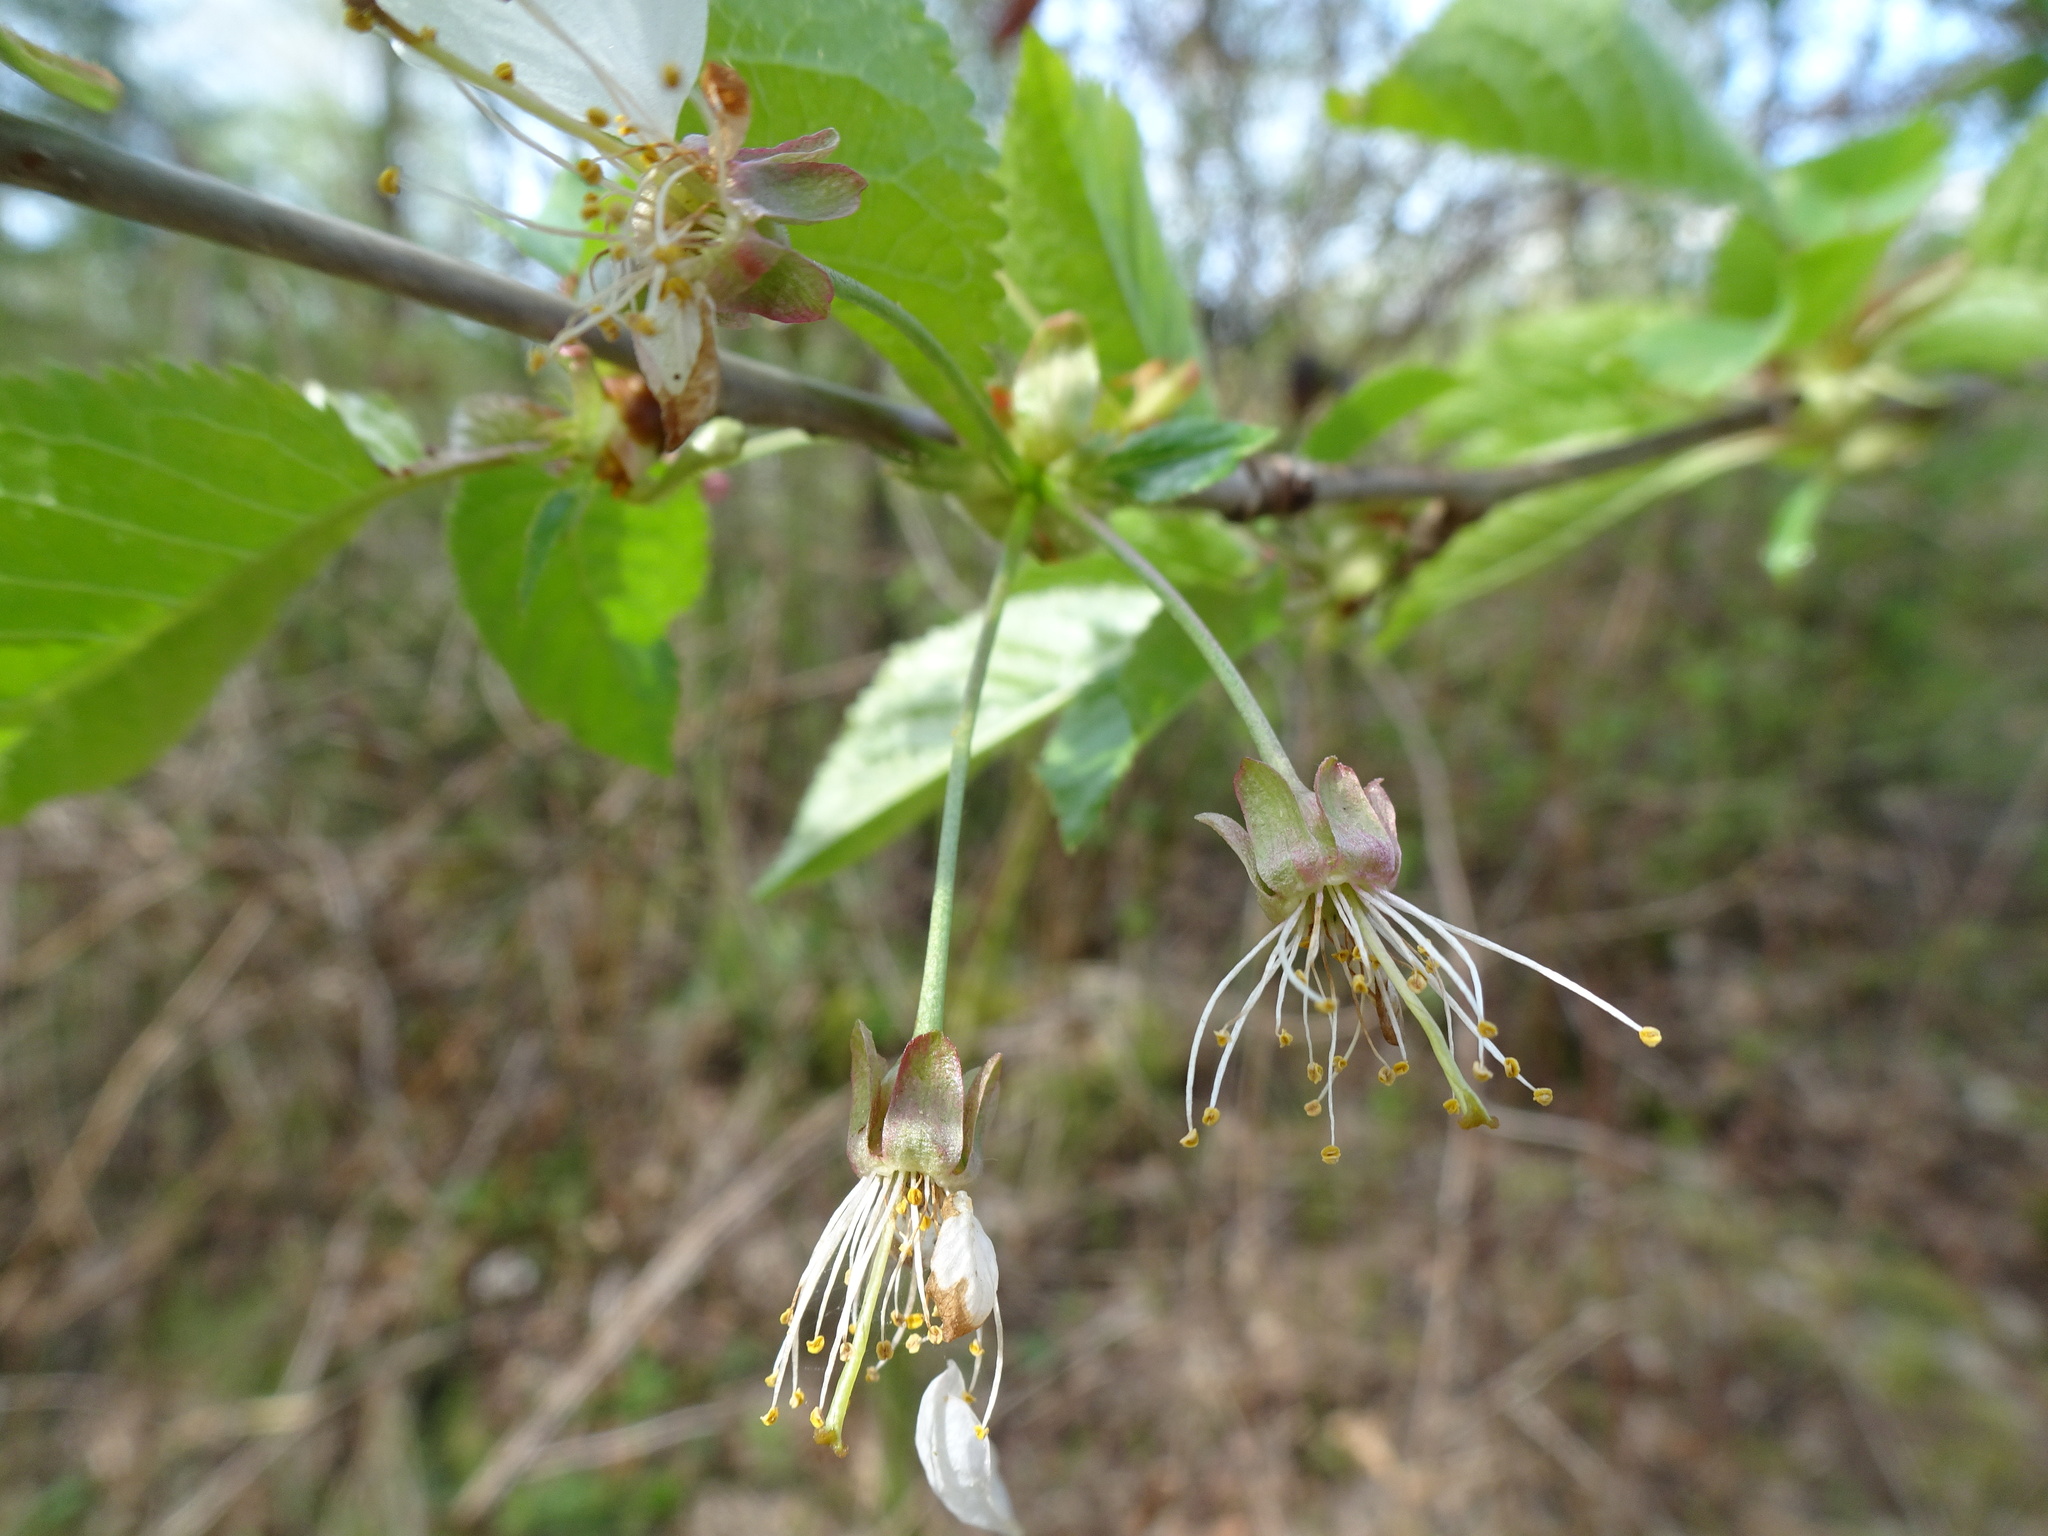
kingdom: Plantae
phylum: Tracheophyta
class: Magnoliopsida
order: Rosales
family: Rosaceae
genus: Prunus
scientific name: Prunus avium
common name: Sweet cherry
